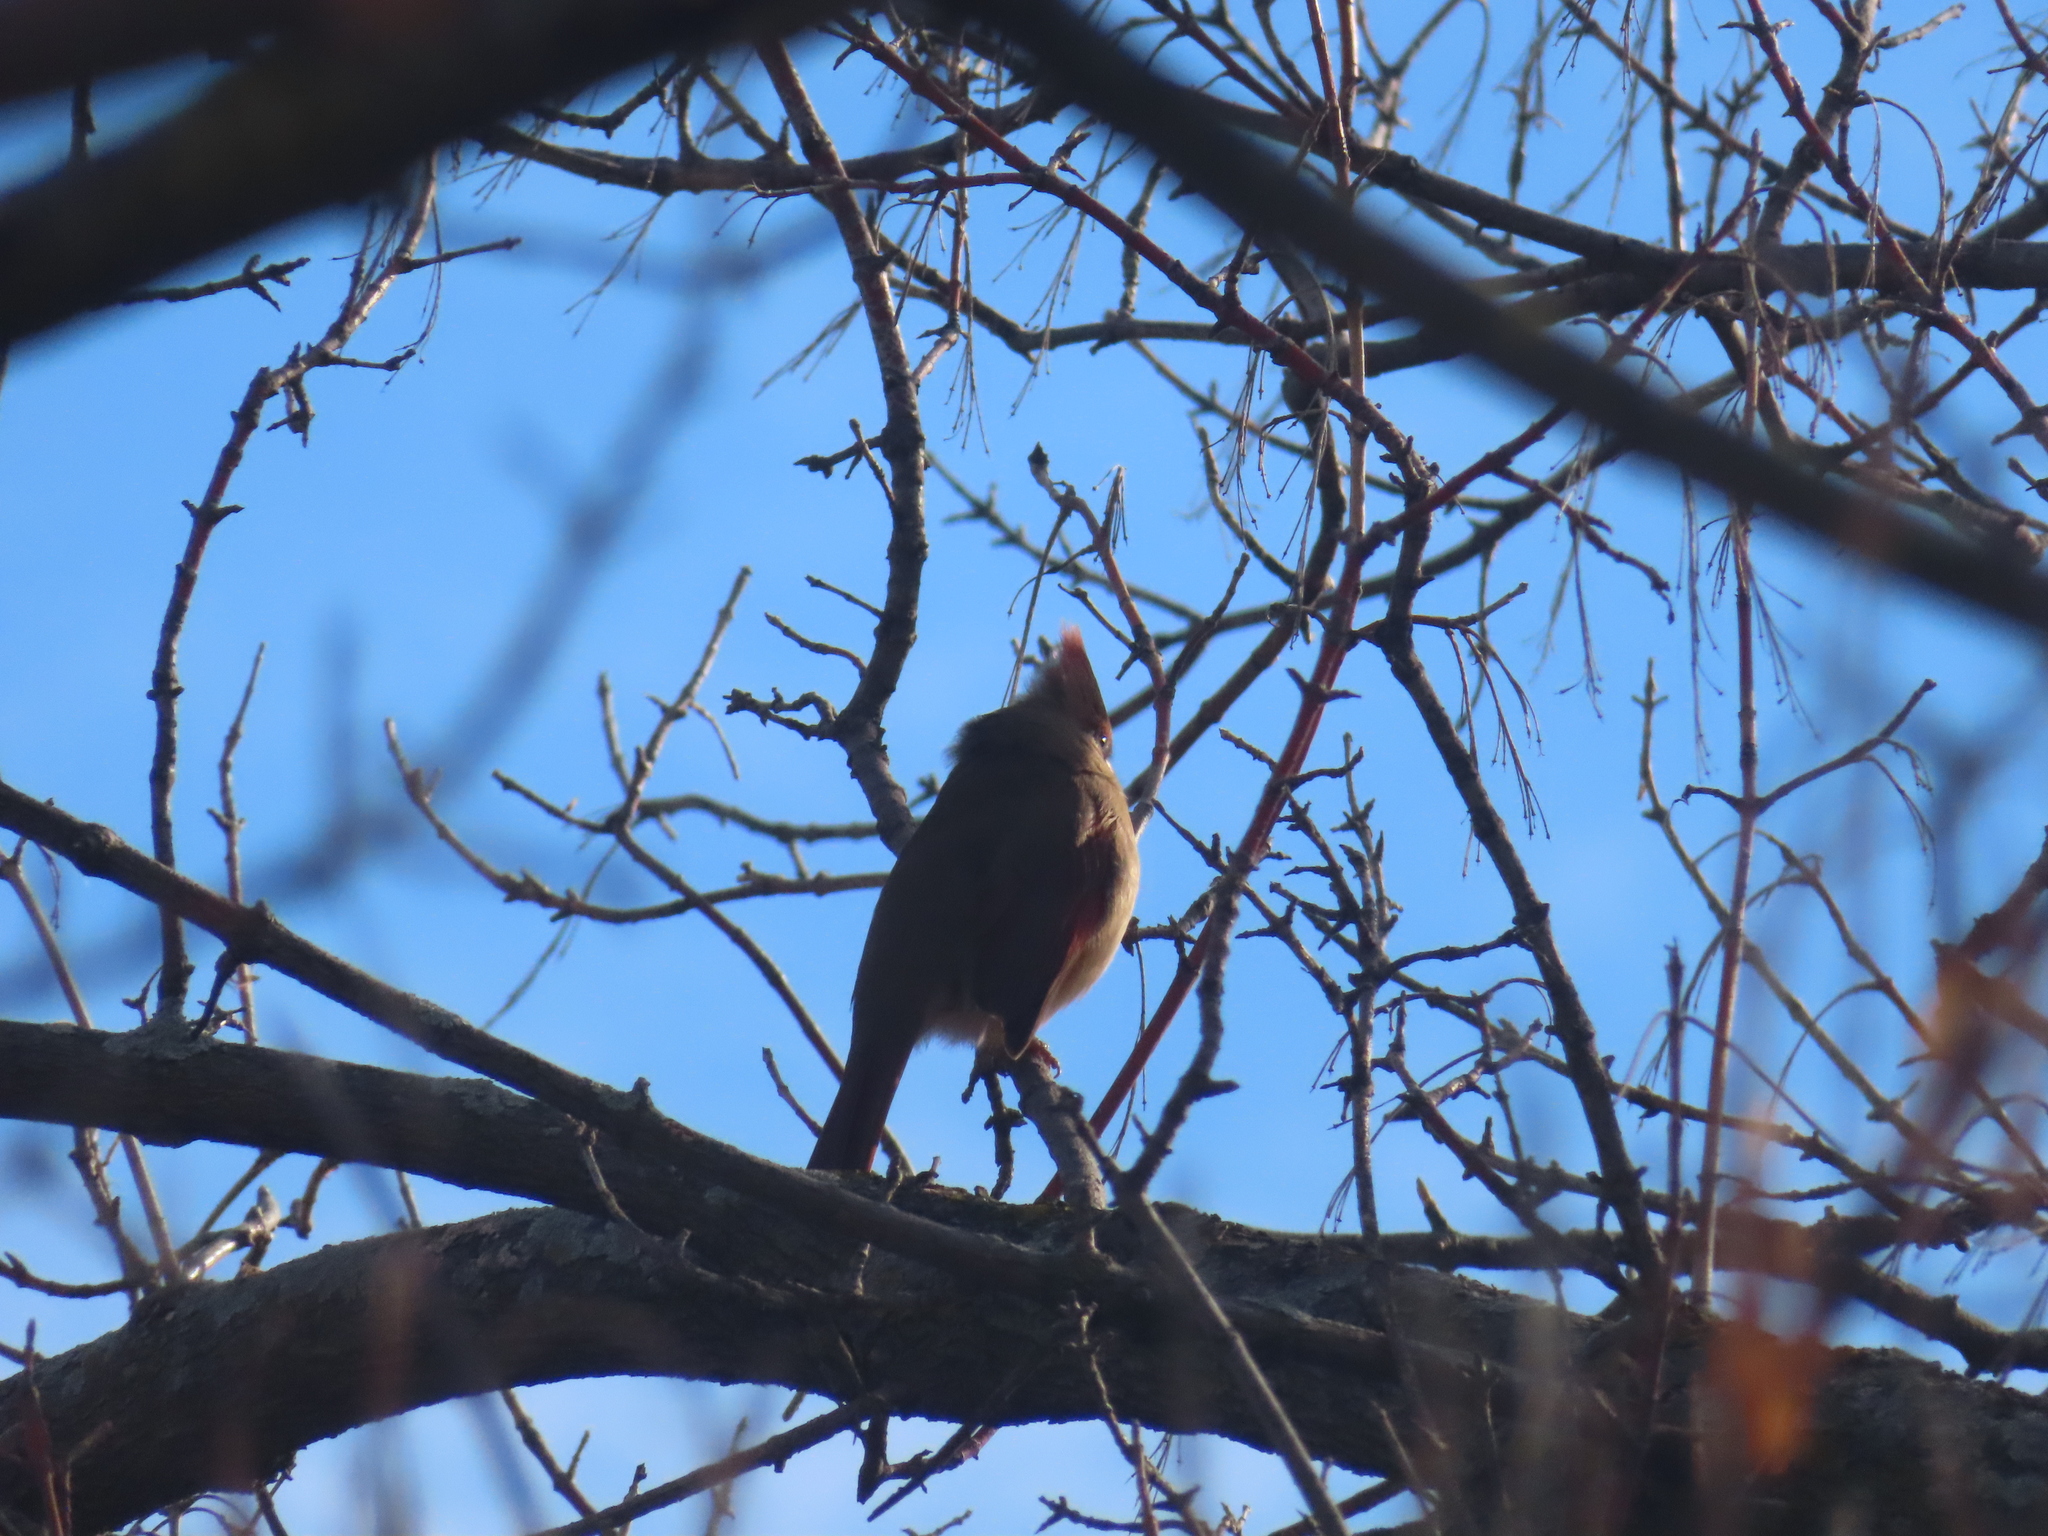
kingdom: Animalia
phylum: Chordata
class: Aves
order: Passeriformes
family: Cardinalidae
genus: Cardinalis
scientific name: Cardinalis cardinalis
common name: Northern cardinal
